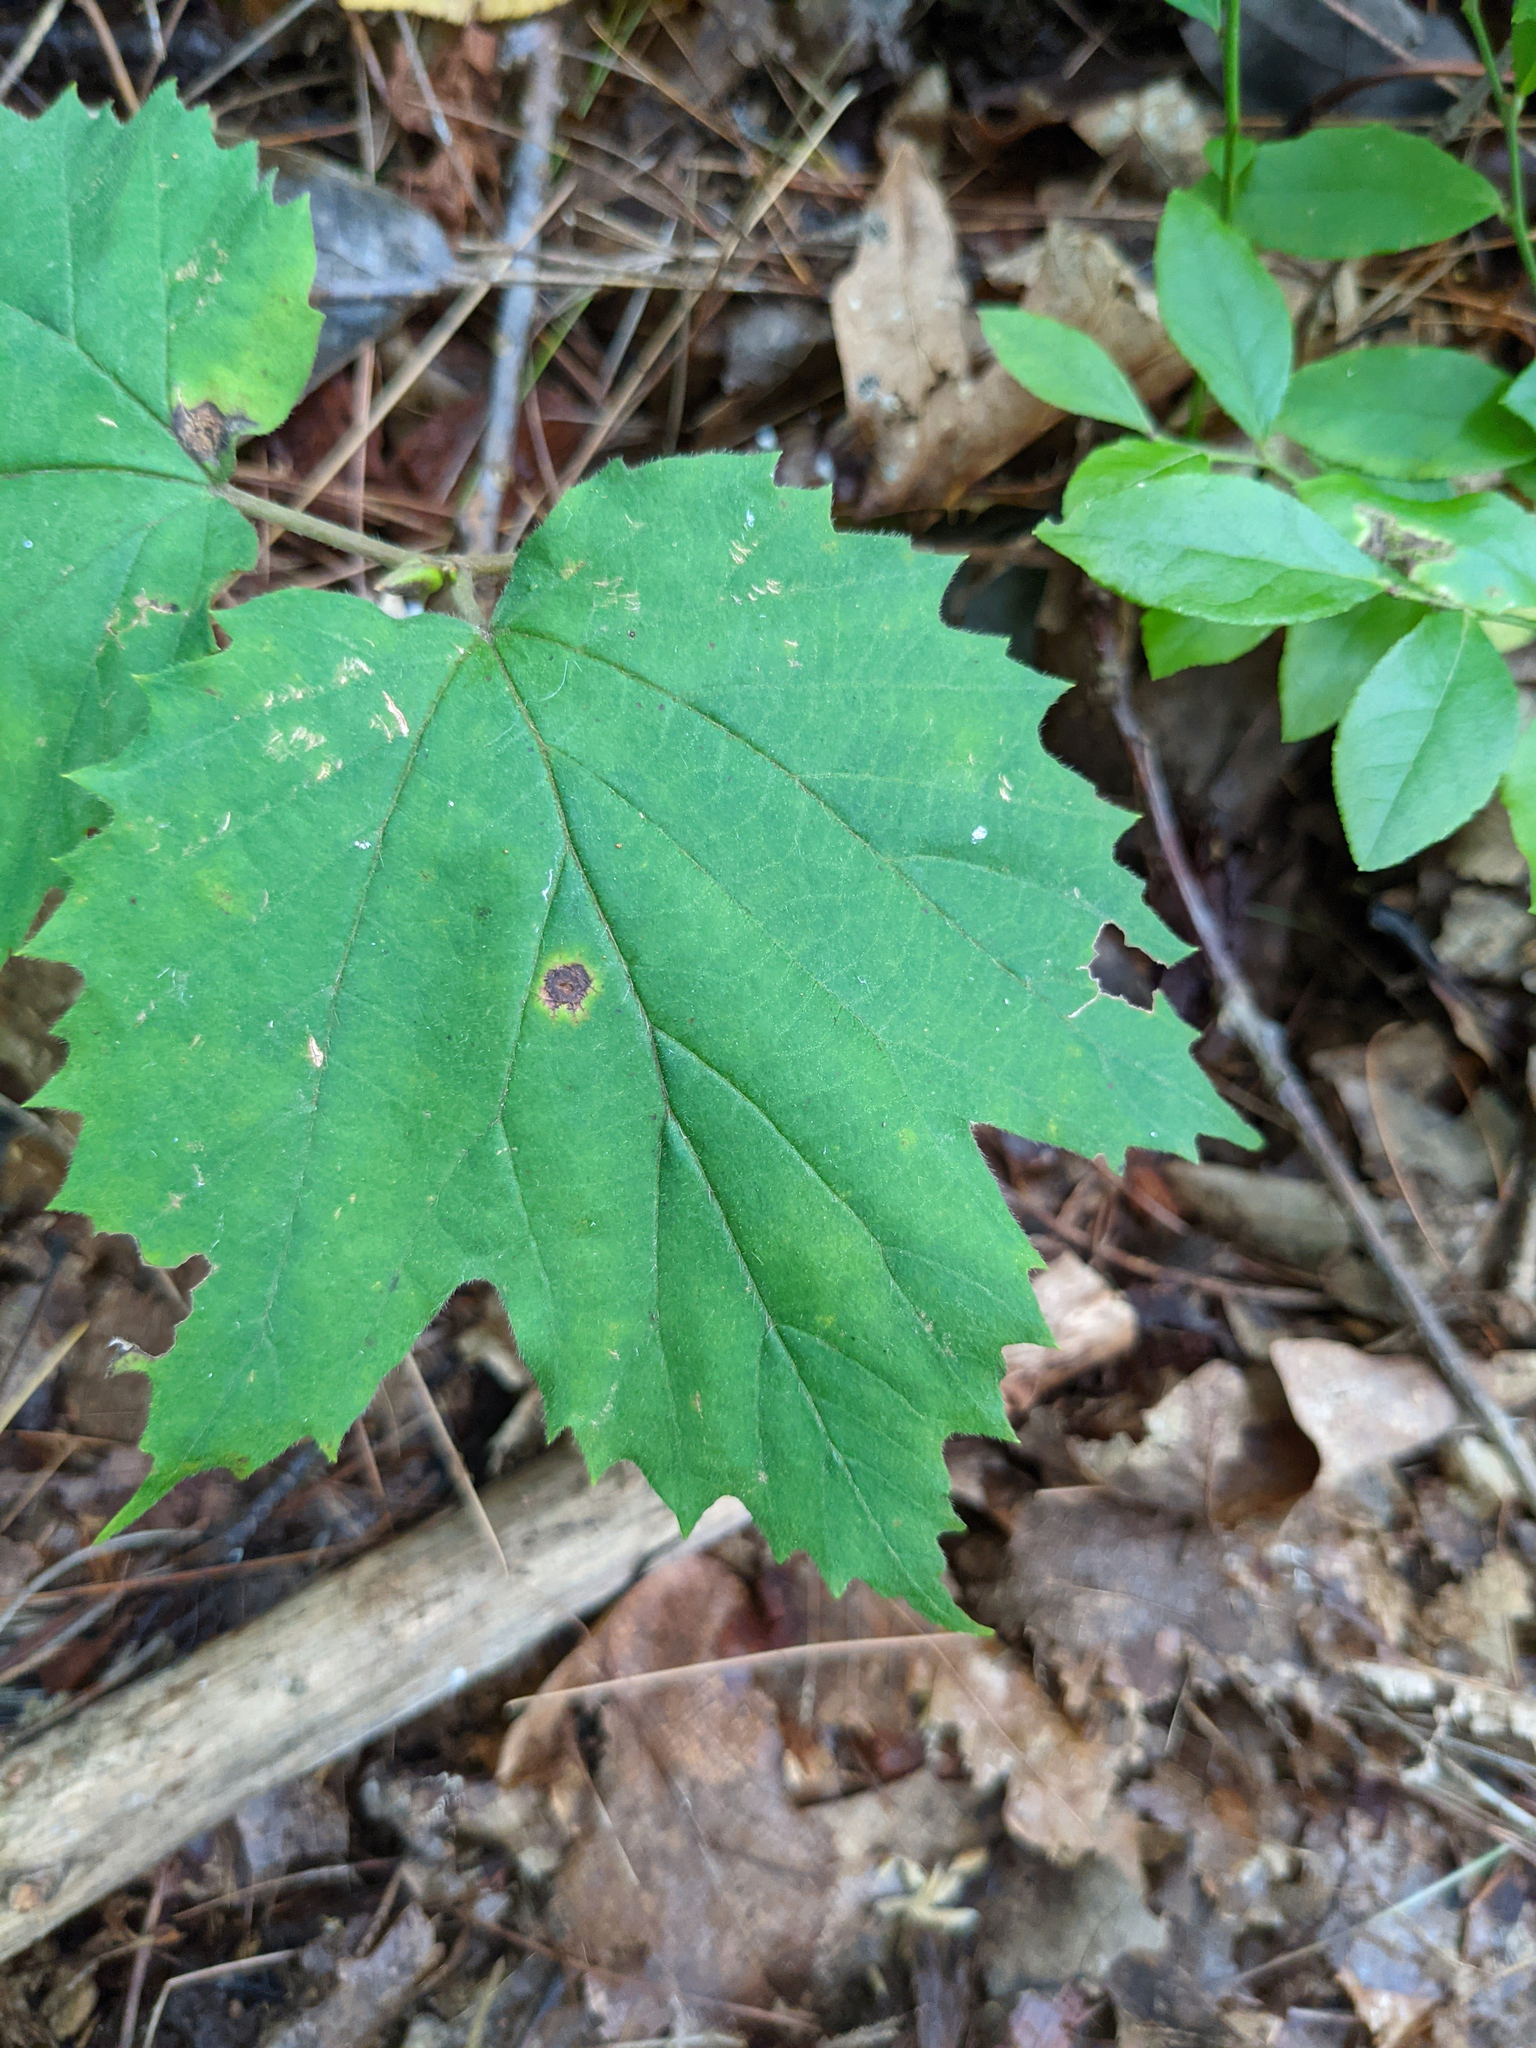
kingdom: Plantae
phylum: Tracheophyta
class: Magnoliopsida
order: Dipsacales
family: Viburnaceae
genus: Viburnum
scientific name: Viburnum acerifolium
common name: Dockmackie
